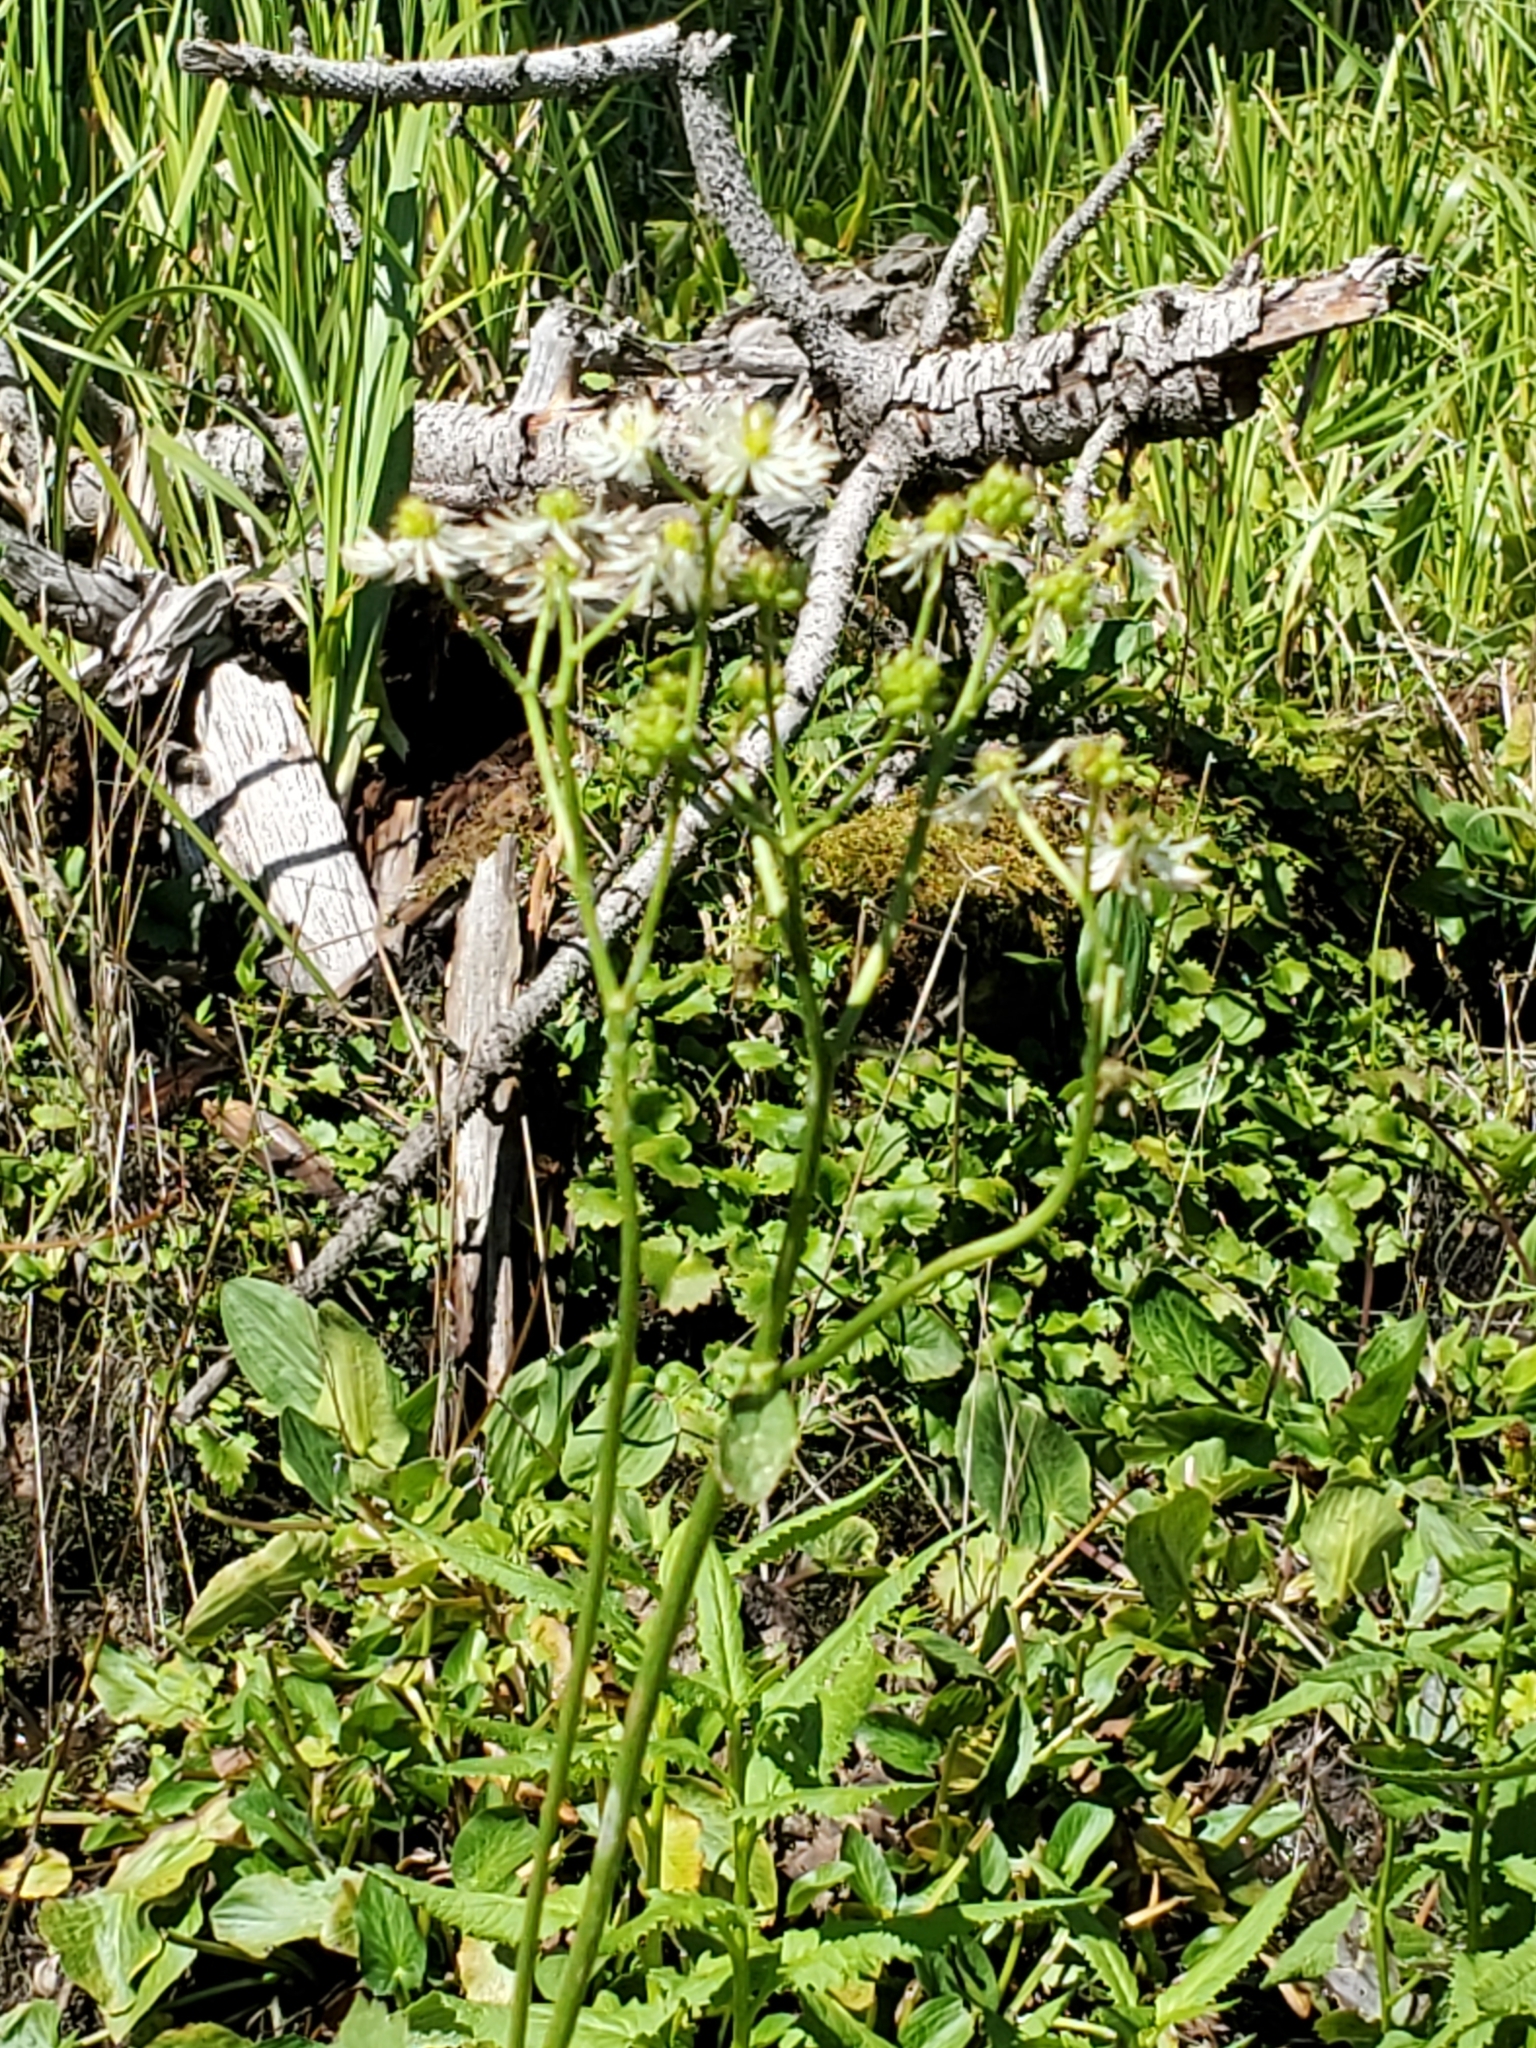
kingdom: Plantae
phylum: Tracheophyta
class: Magnoliopsida
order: Ranunculales
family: Ranunculaceae
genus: Trautvetteria
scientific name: Trautvetteria carolinensis
